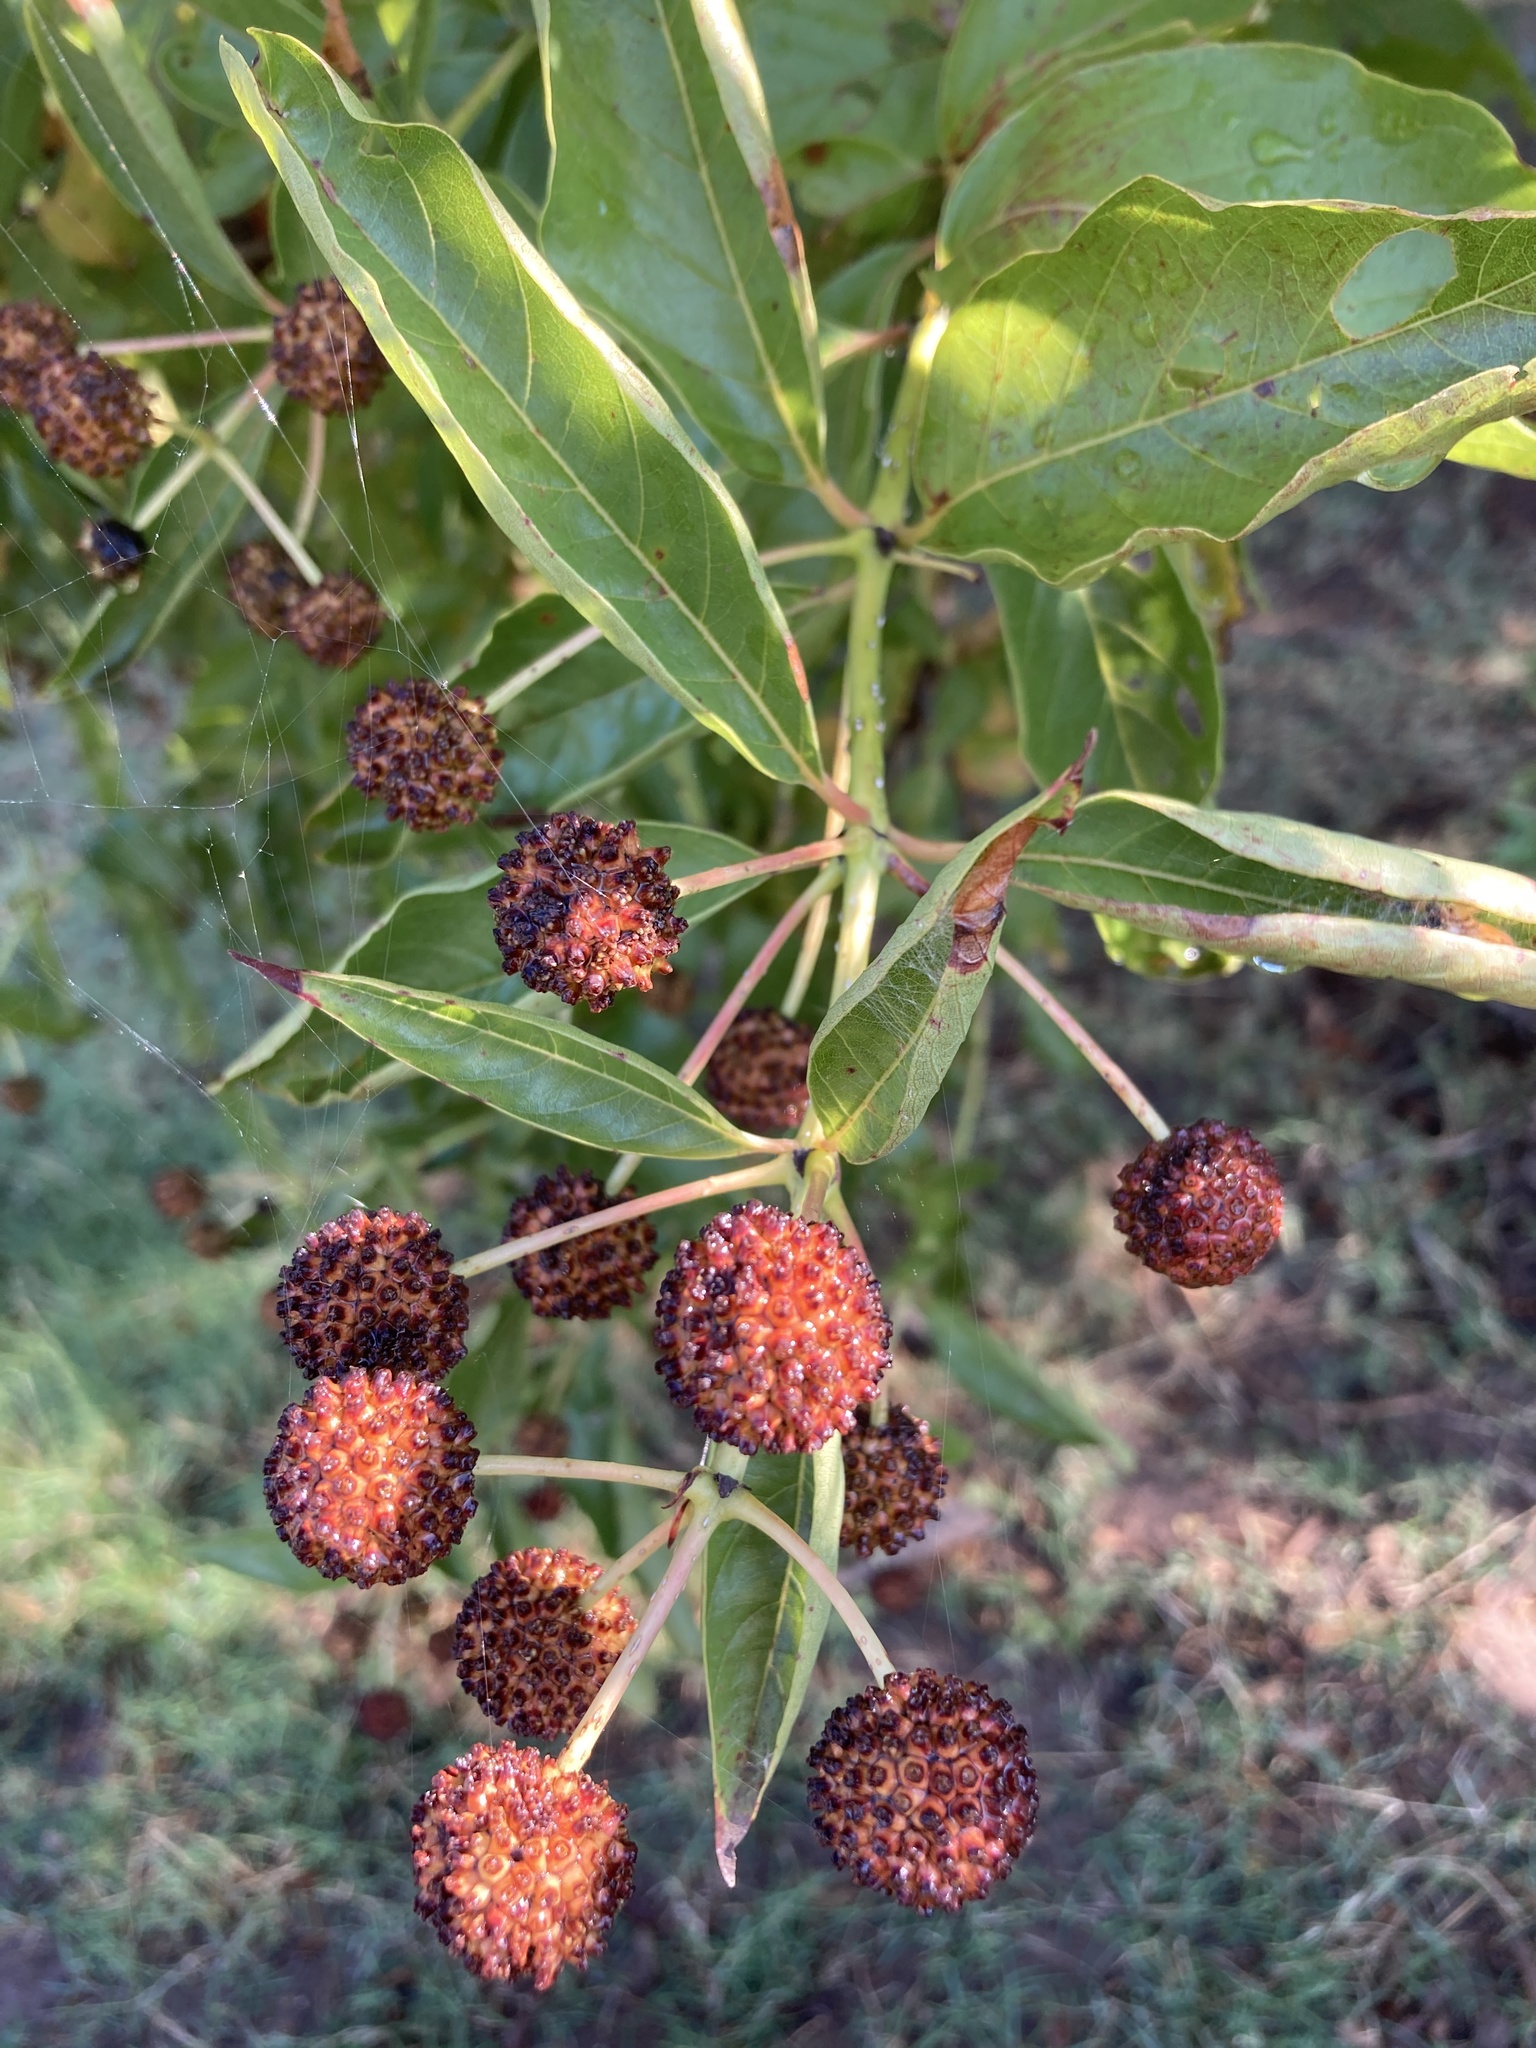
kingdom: Plantae
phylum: Tracheophyta
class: Magnoliopsida
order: Gentianales
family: Rubiaceae
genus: Cephalanthus
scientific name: Cephalanthus occidentalis
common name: Button-willow
